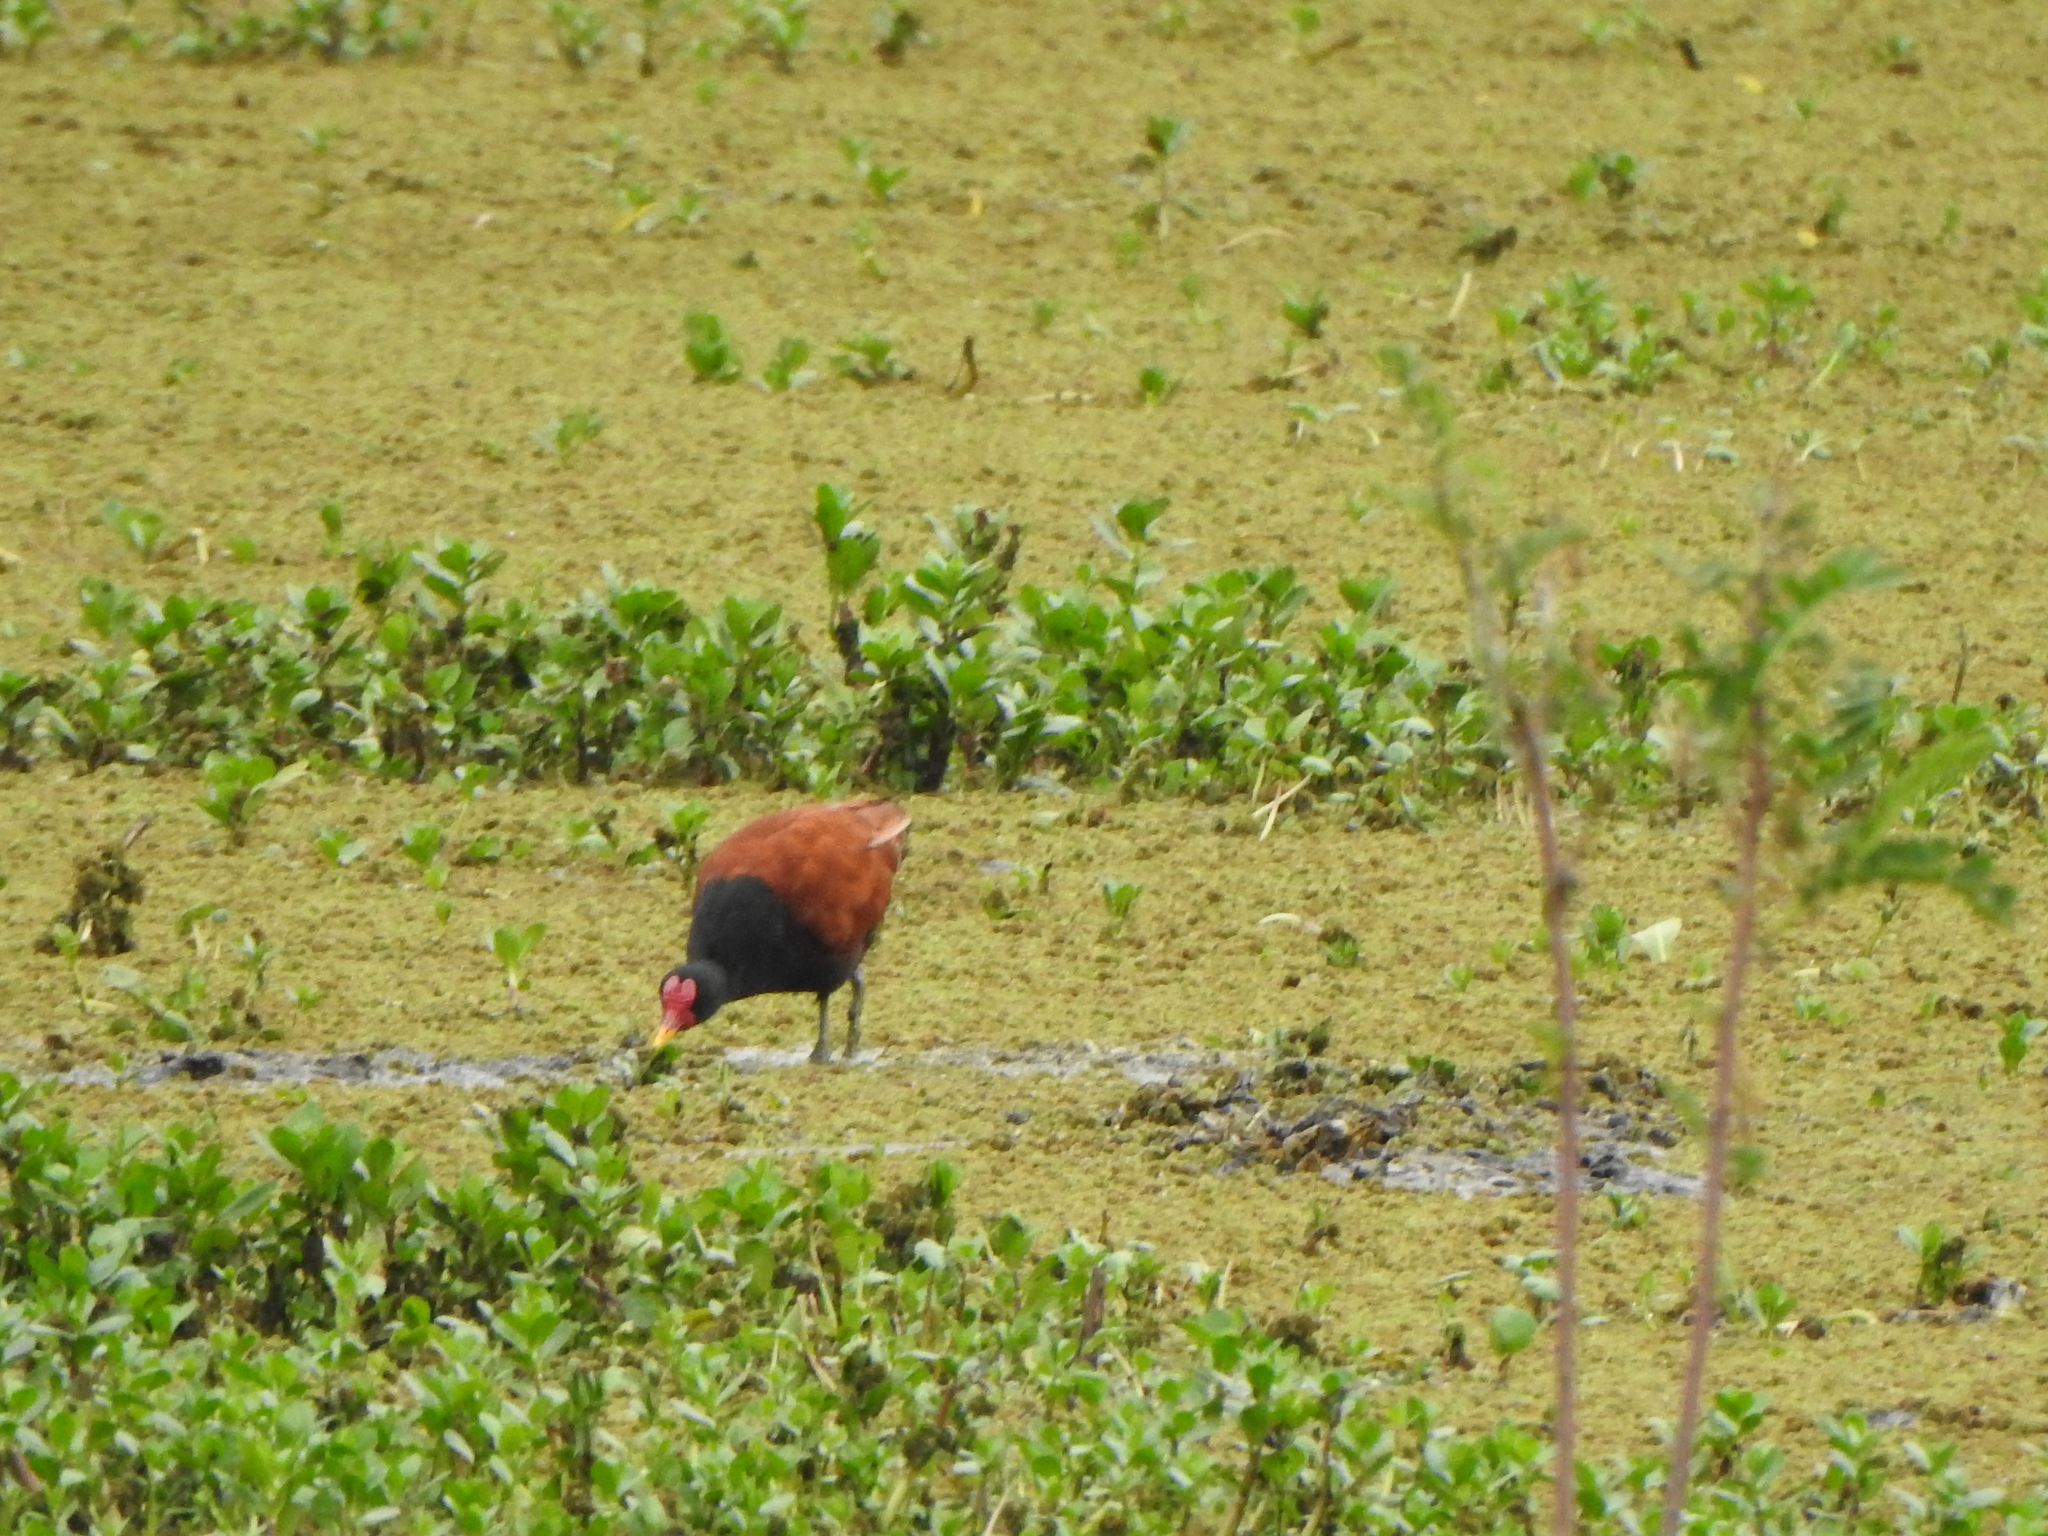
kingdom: Animalia
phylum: Chordata
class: Aves
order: Charadriiformes
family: Jacanidae
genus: Jacana
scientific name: Jacana jacana
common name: Wattled jacana
